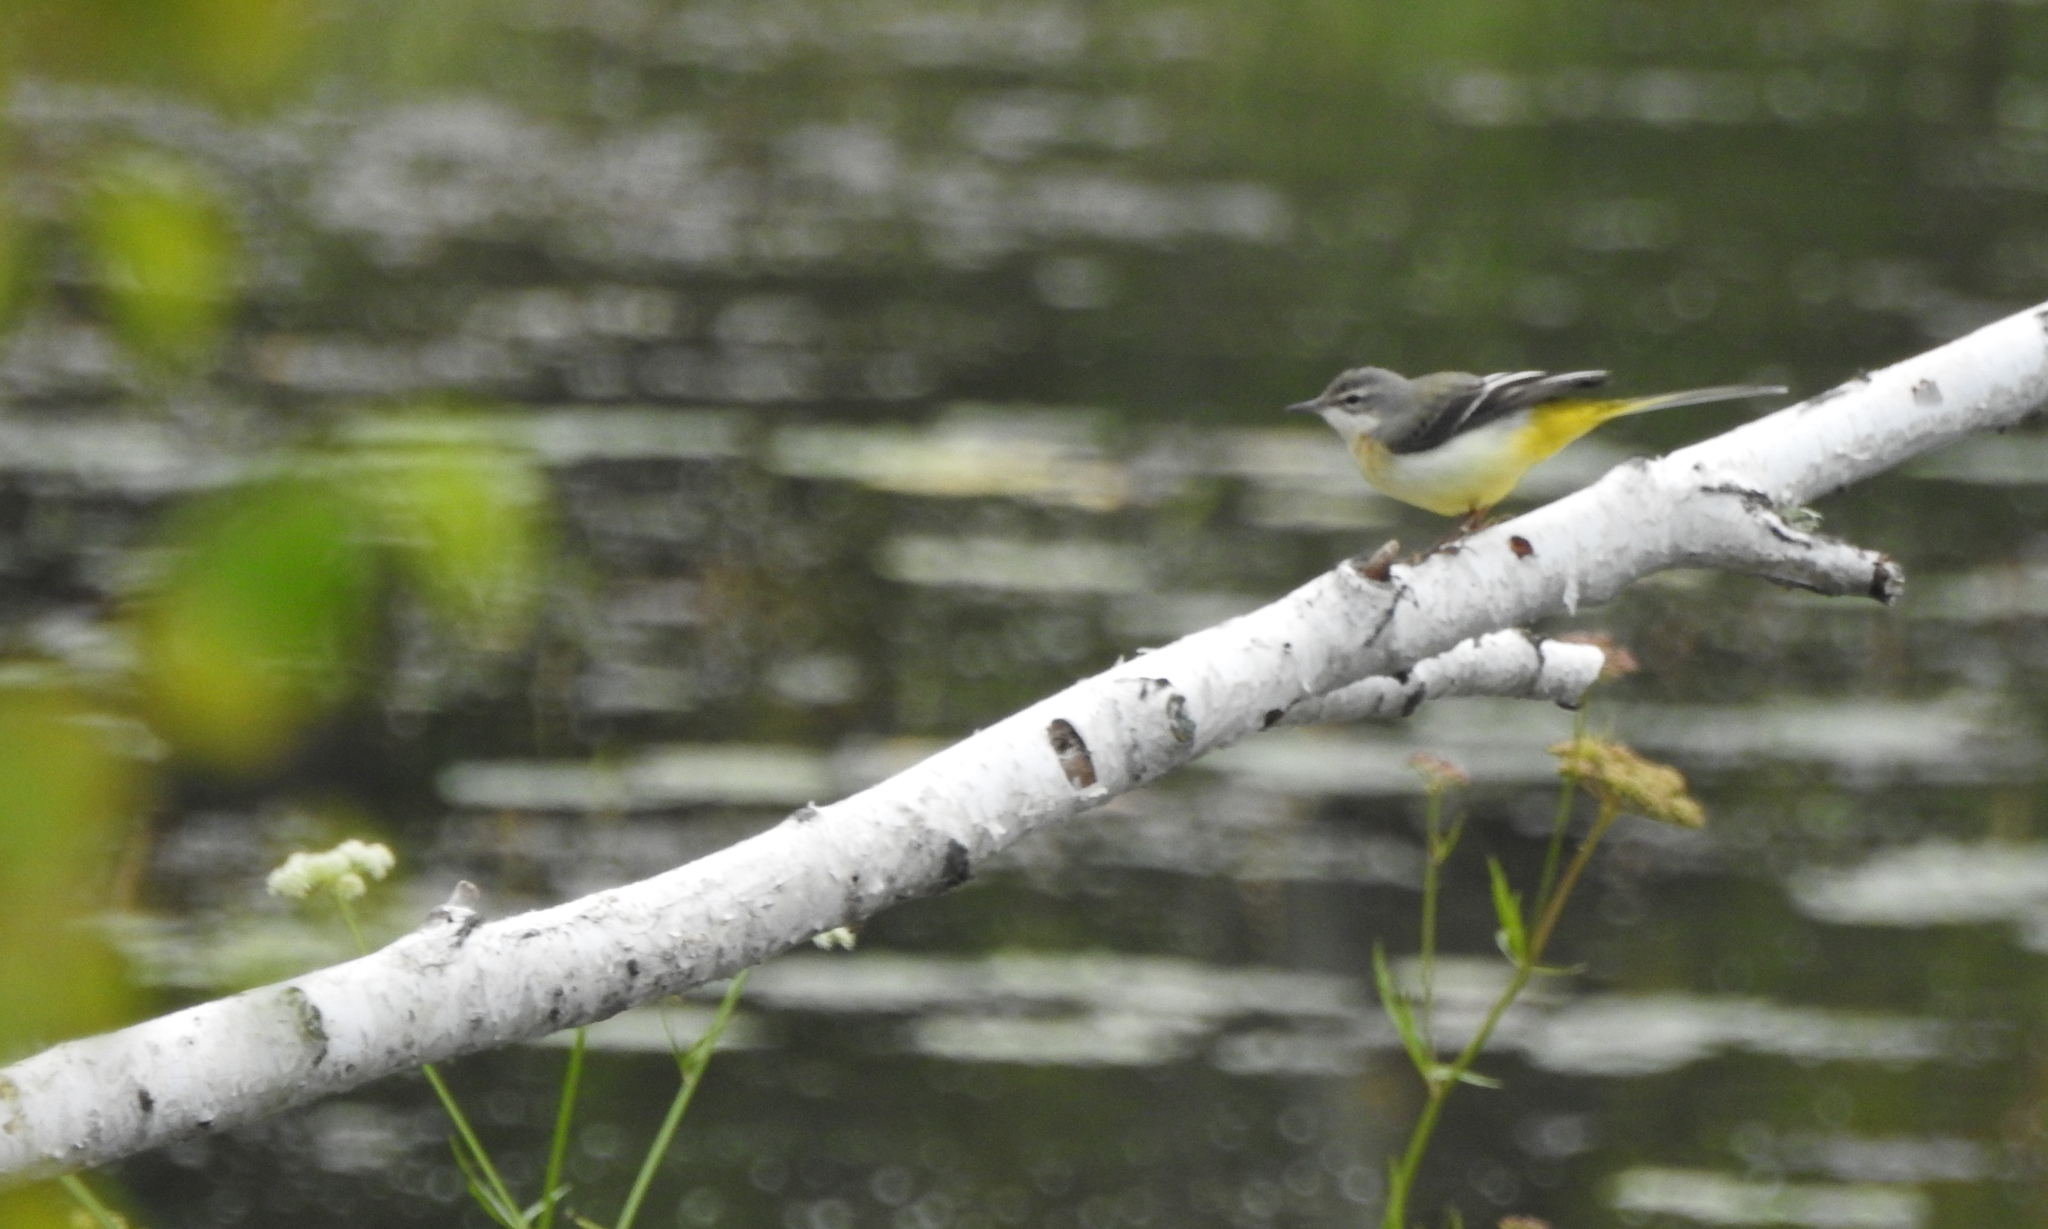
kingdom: Animalia
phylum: Chordata
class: Aves
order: Passeriformes
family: Motacillidae
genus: Motacilla
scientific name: Motacilla cinerea
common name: Grey wagtail
